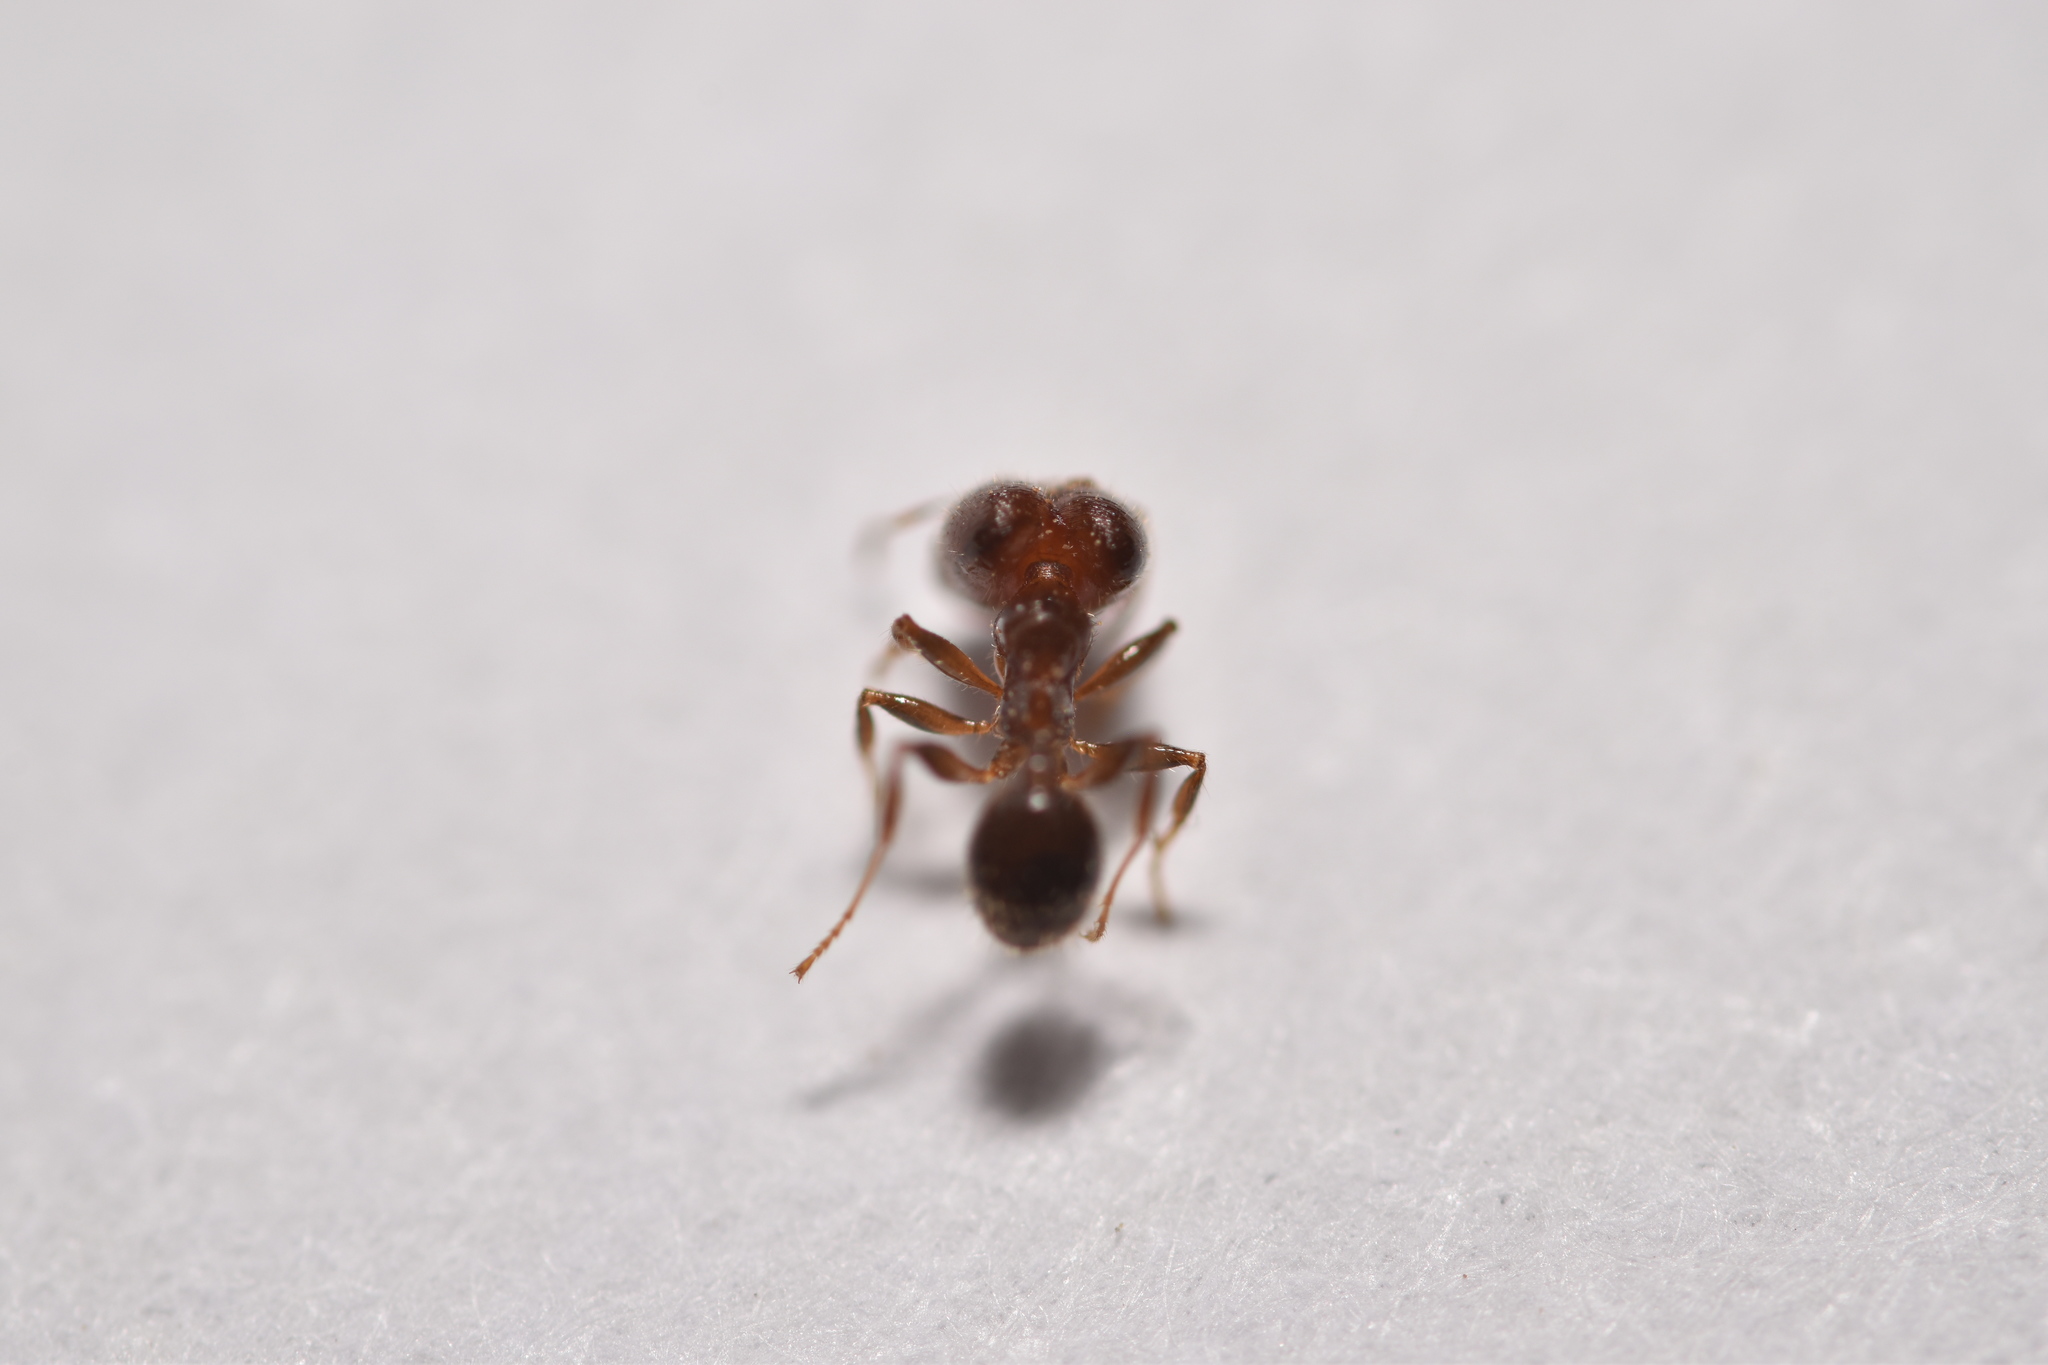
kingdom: Animalia
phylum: Arthropoda
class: Insecta
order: Hymenoptera
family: Formicidae
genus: Pheidole
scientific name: Pheidole tepicana
